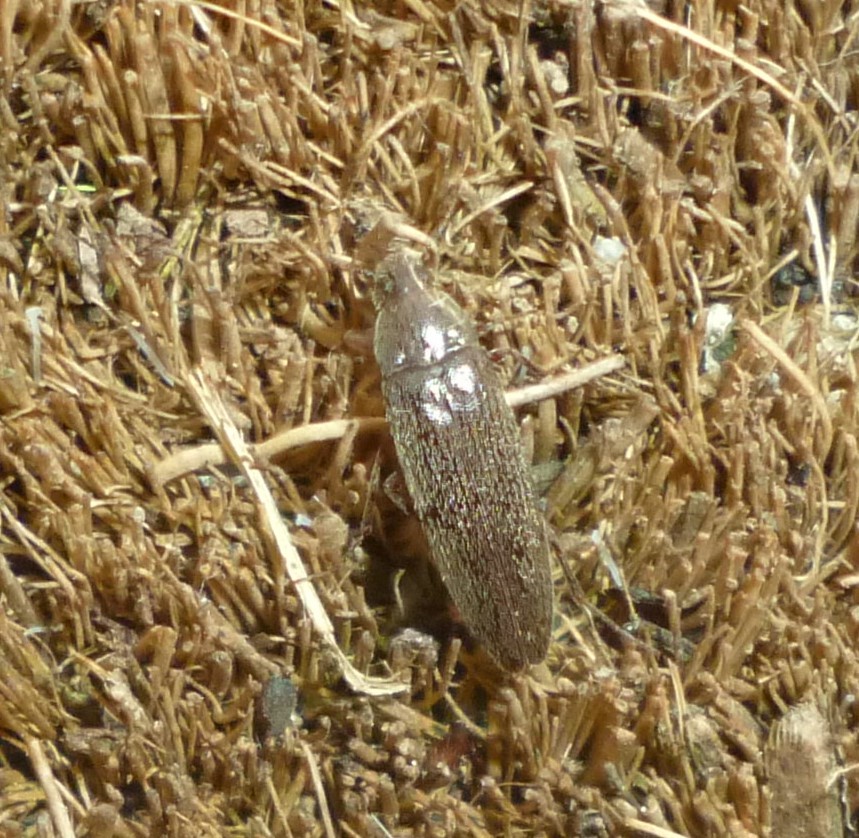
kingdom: Animalia
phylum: Arthropoda
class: Insecta
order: Coleoptera
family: Synchroidae
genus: Synchroa
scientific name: Synchroa punctata
